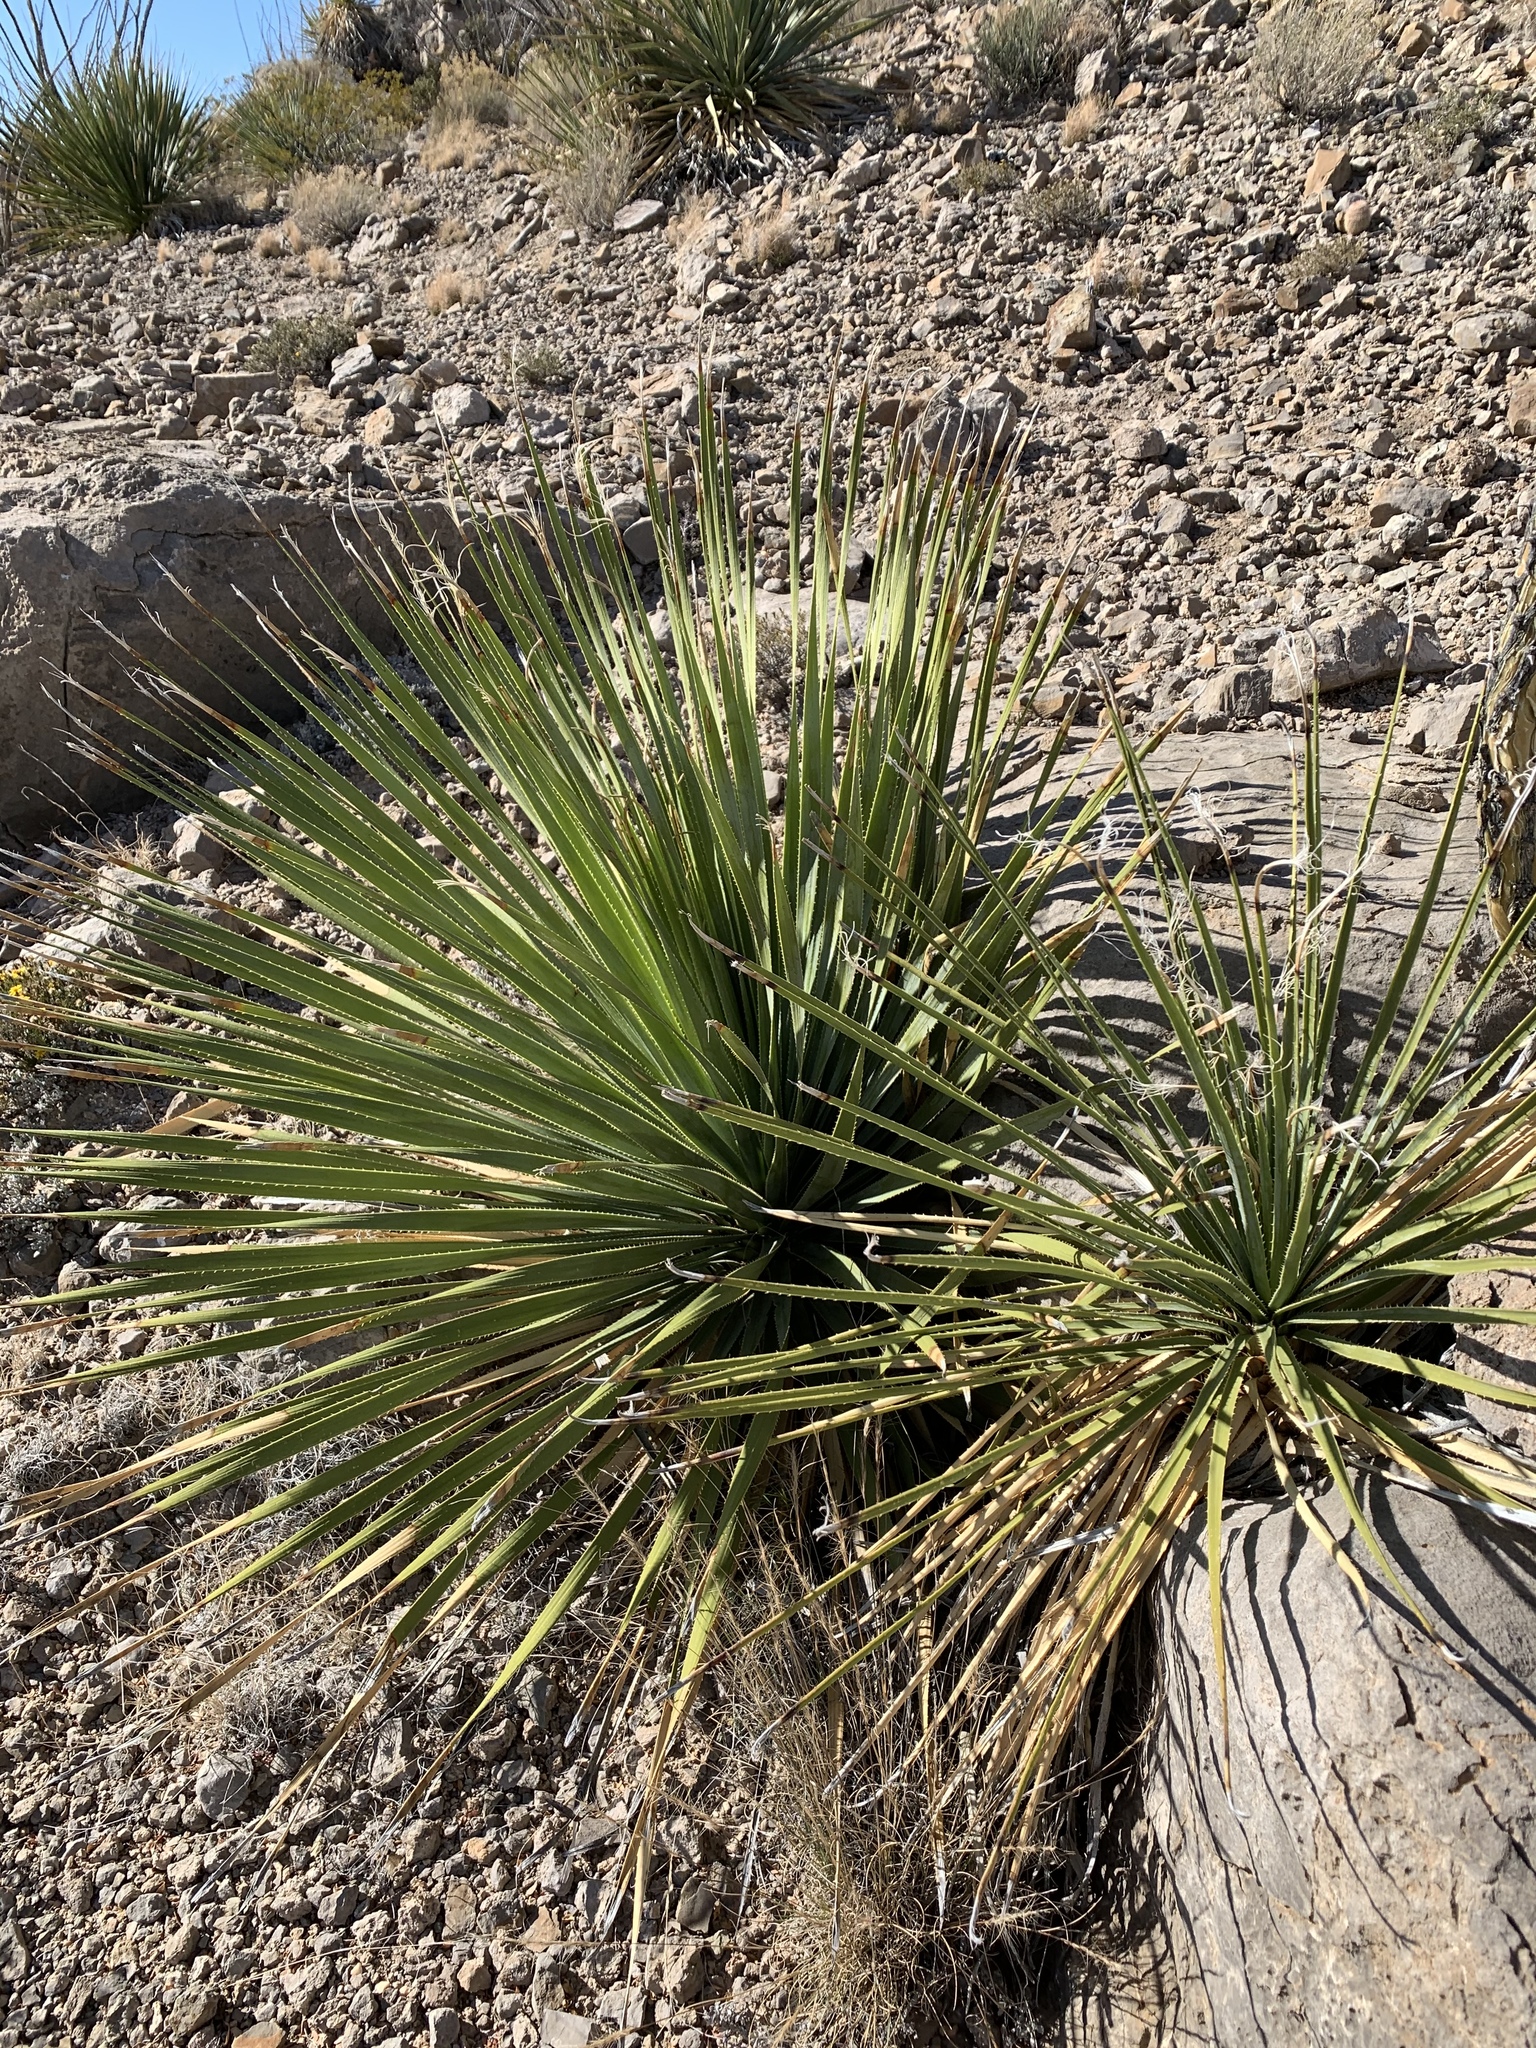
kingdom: Plantae
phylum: Tracheophyta
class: Liliopsida
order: Asparagales
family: Asparagaceae
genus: Dasylirion
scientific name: Dasylirion wheeleri
